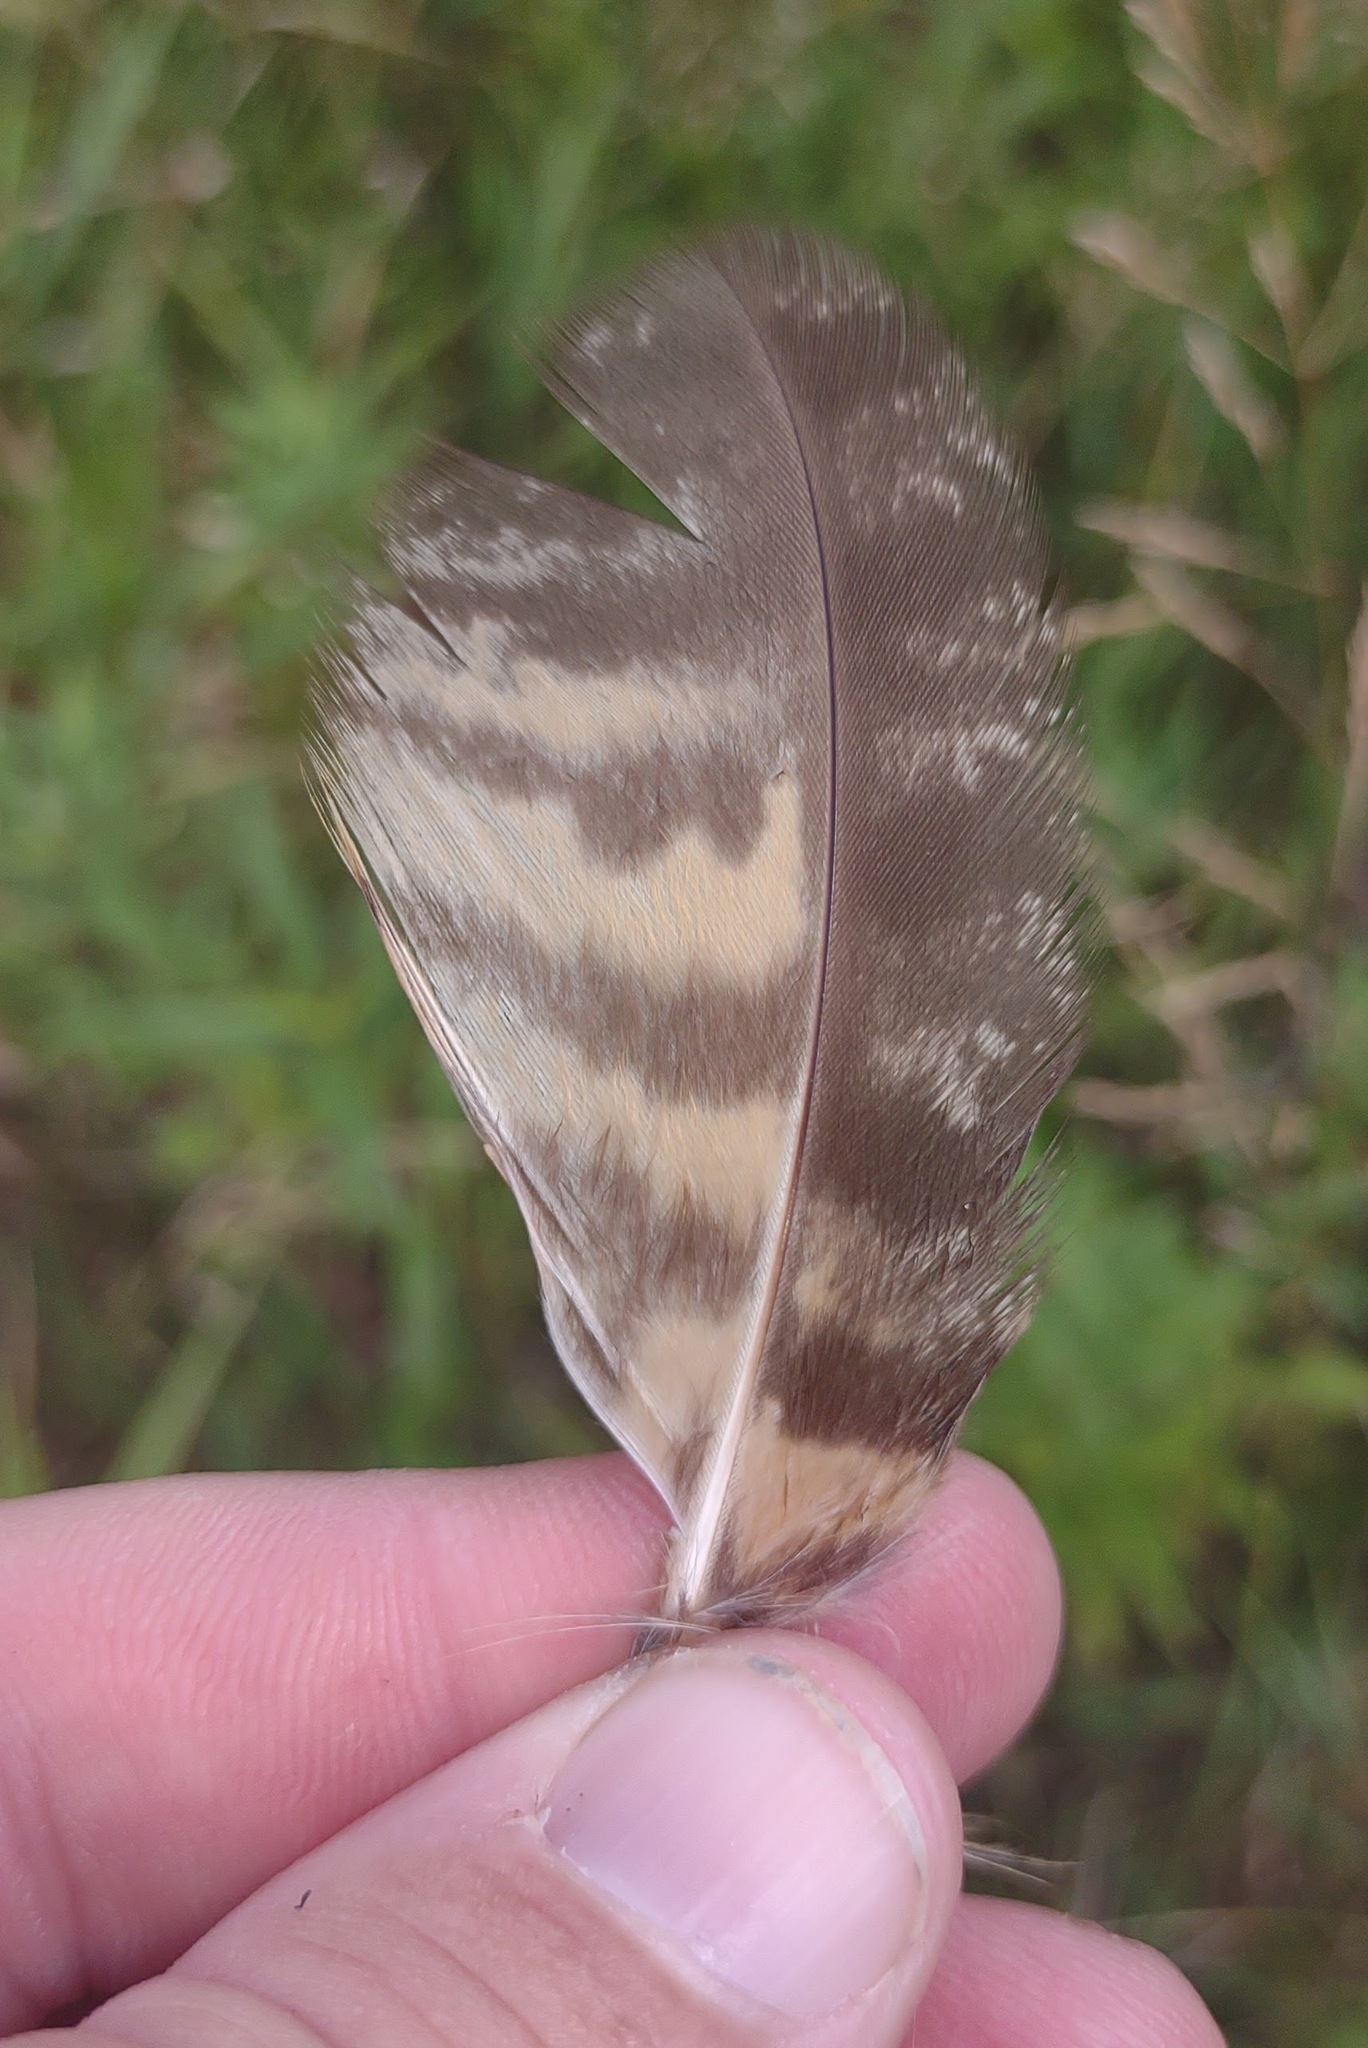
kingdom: Animalia
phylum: Chordata
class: Aves
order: Strigiformes
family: Strigidae
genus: Bubo
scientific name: Bubo virginianus
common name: Great horned owl
